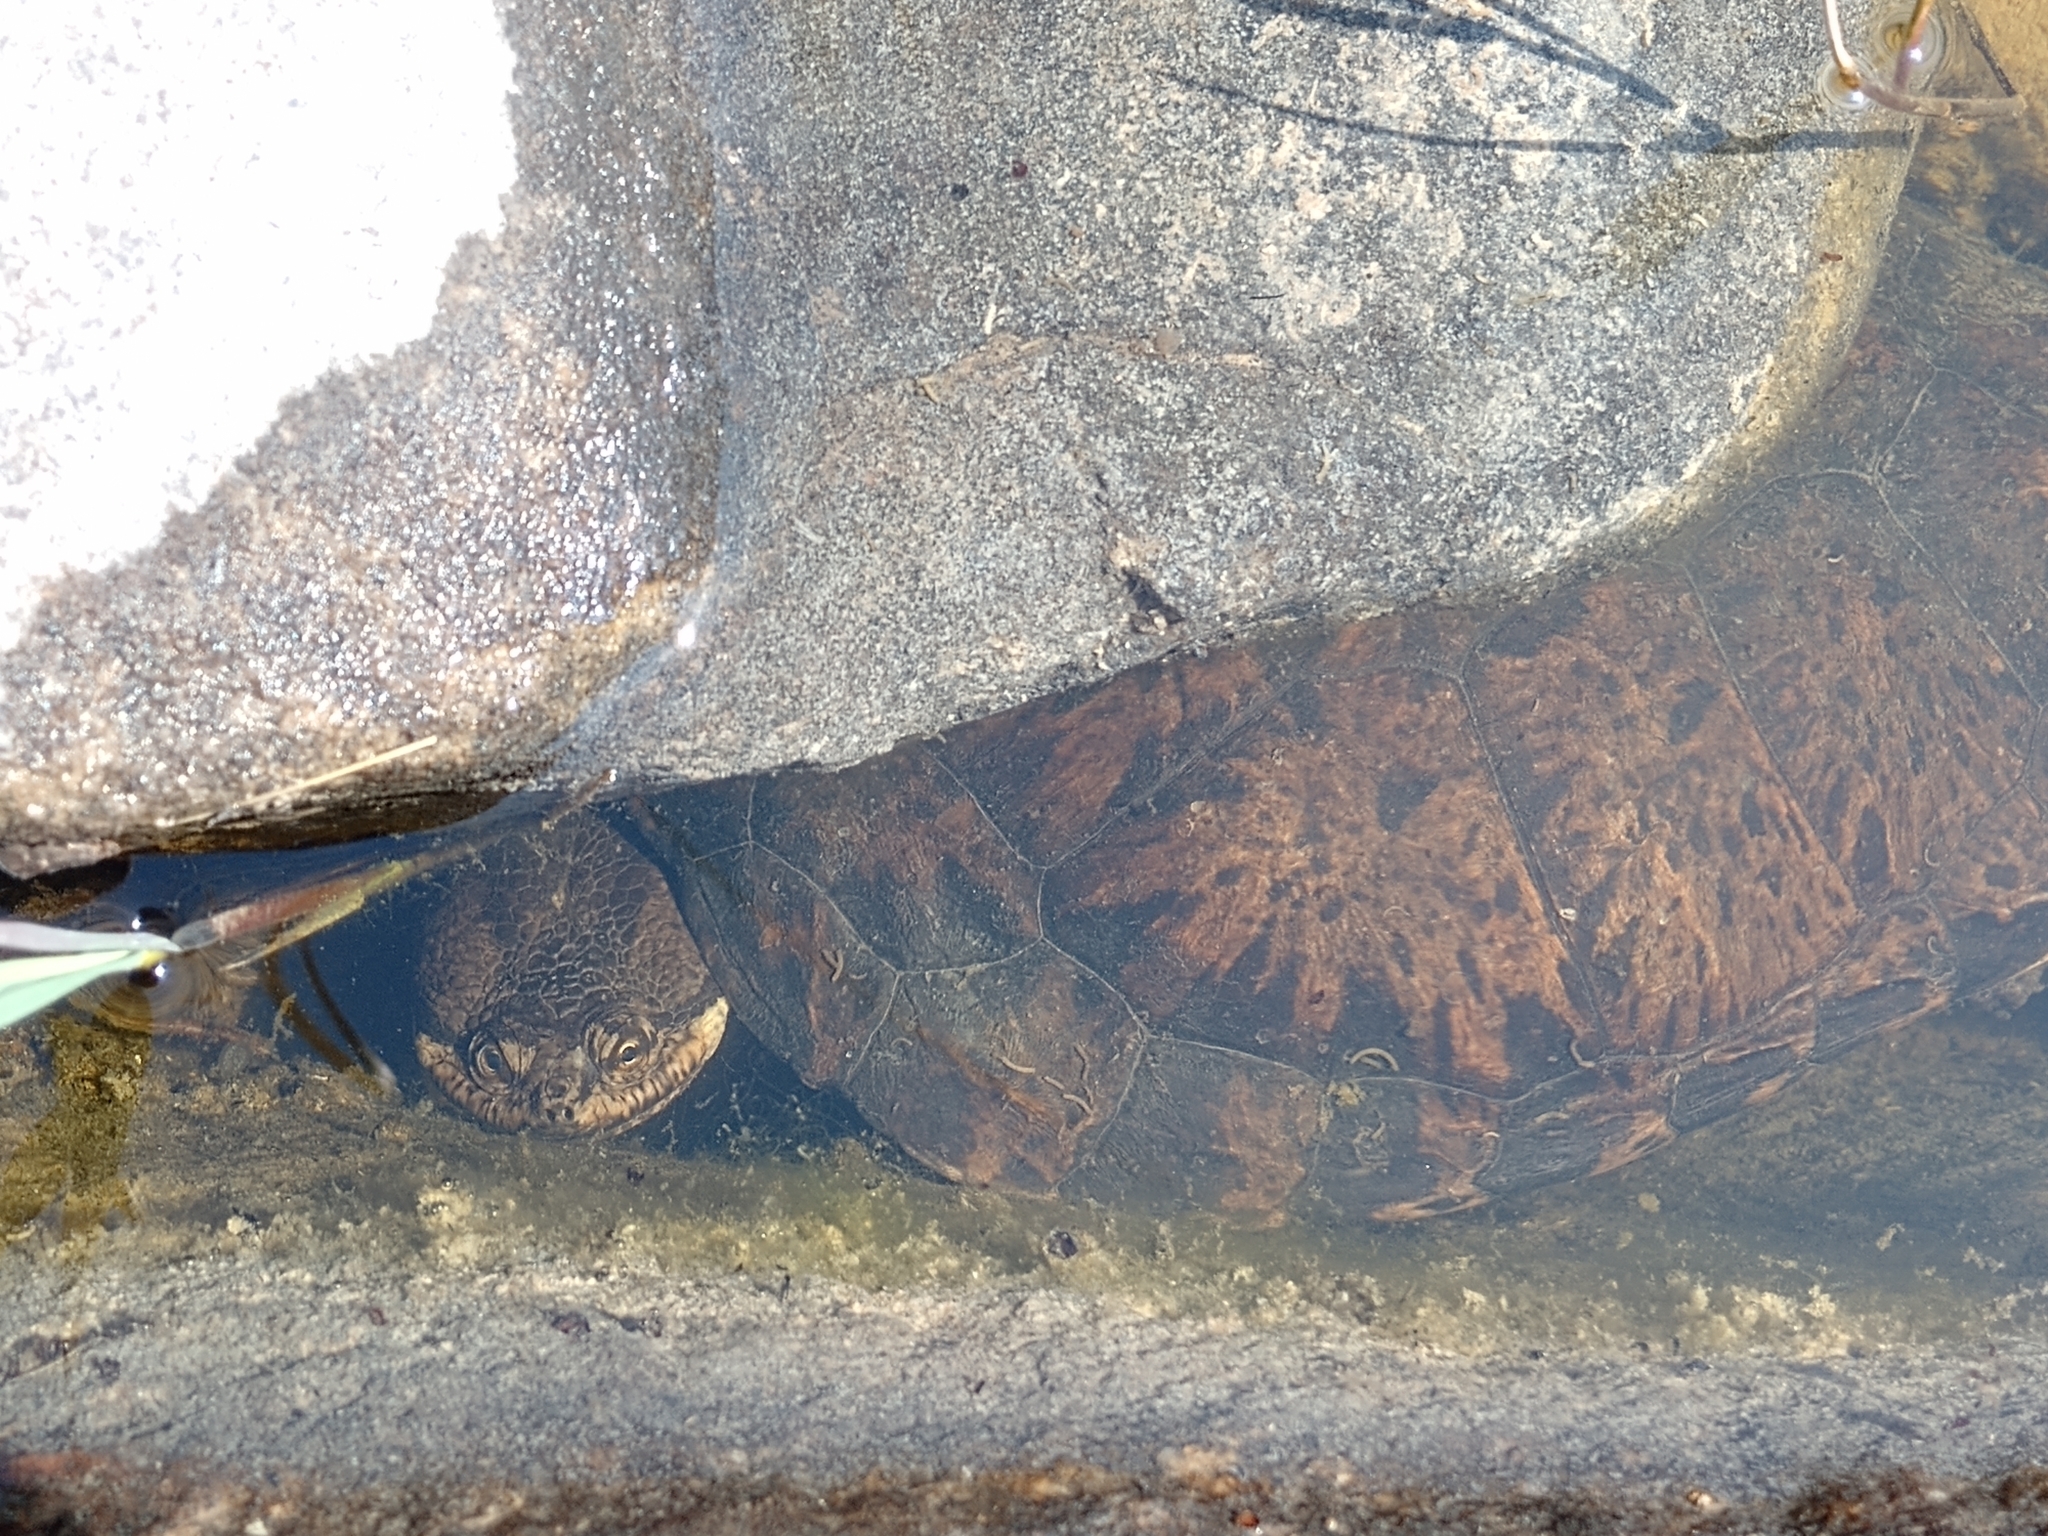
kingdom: Animalia
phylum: Chordata
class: Testudines
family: Chelidae
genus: Hydromedusa
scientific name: Hydromedusa tectifera
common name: Argentine snake-necked turtle
